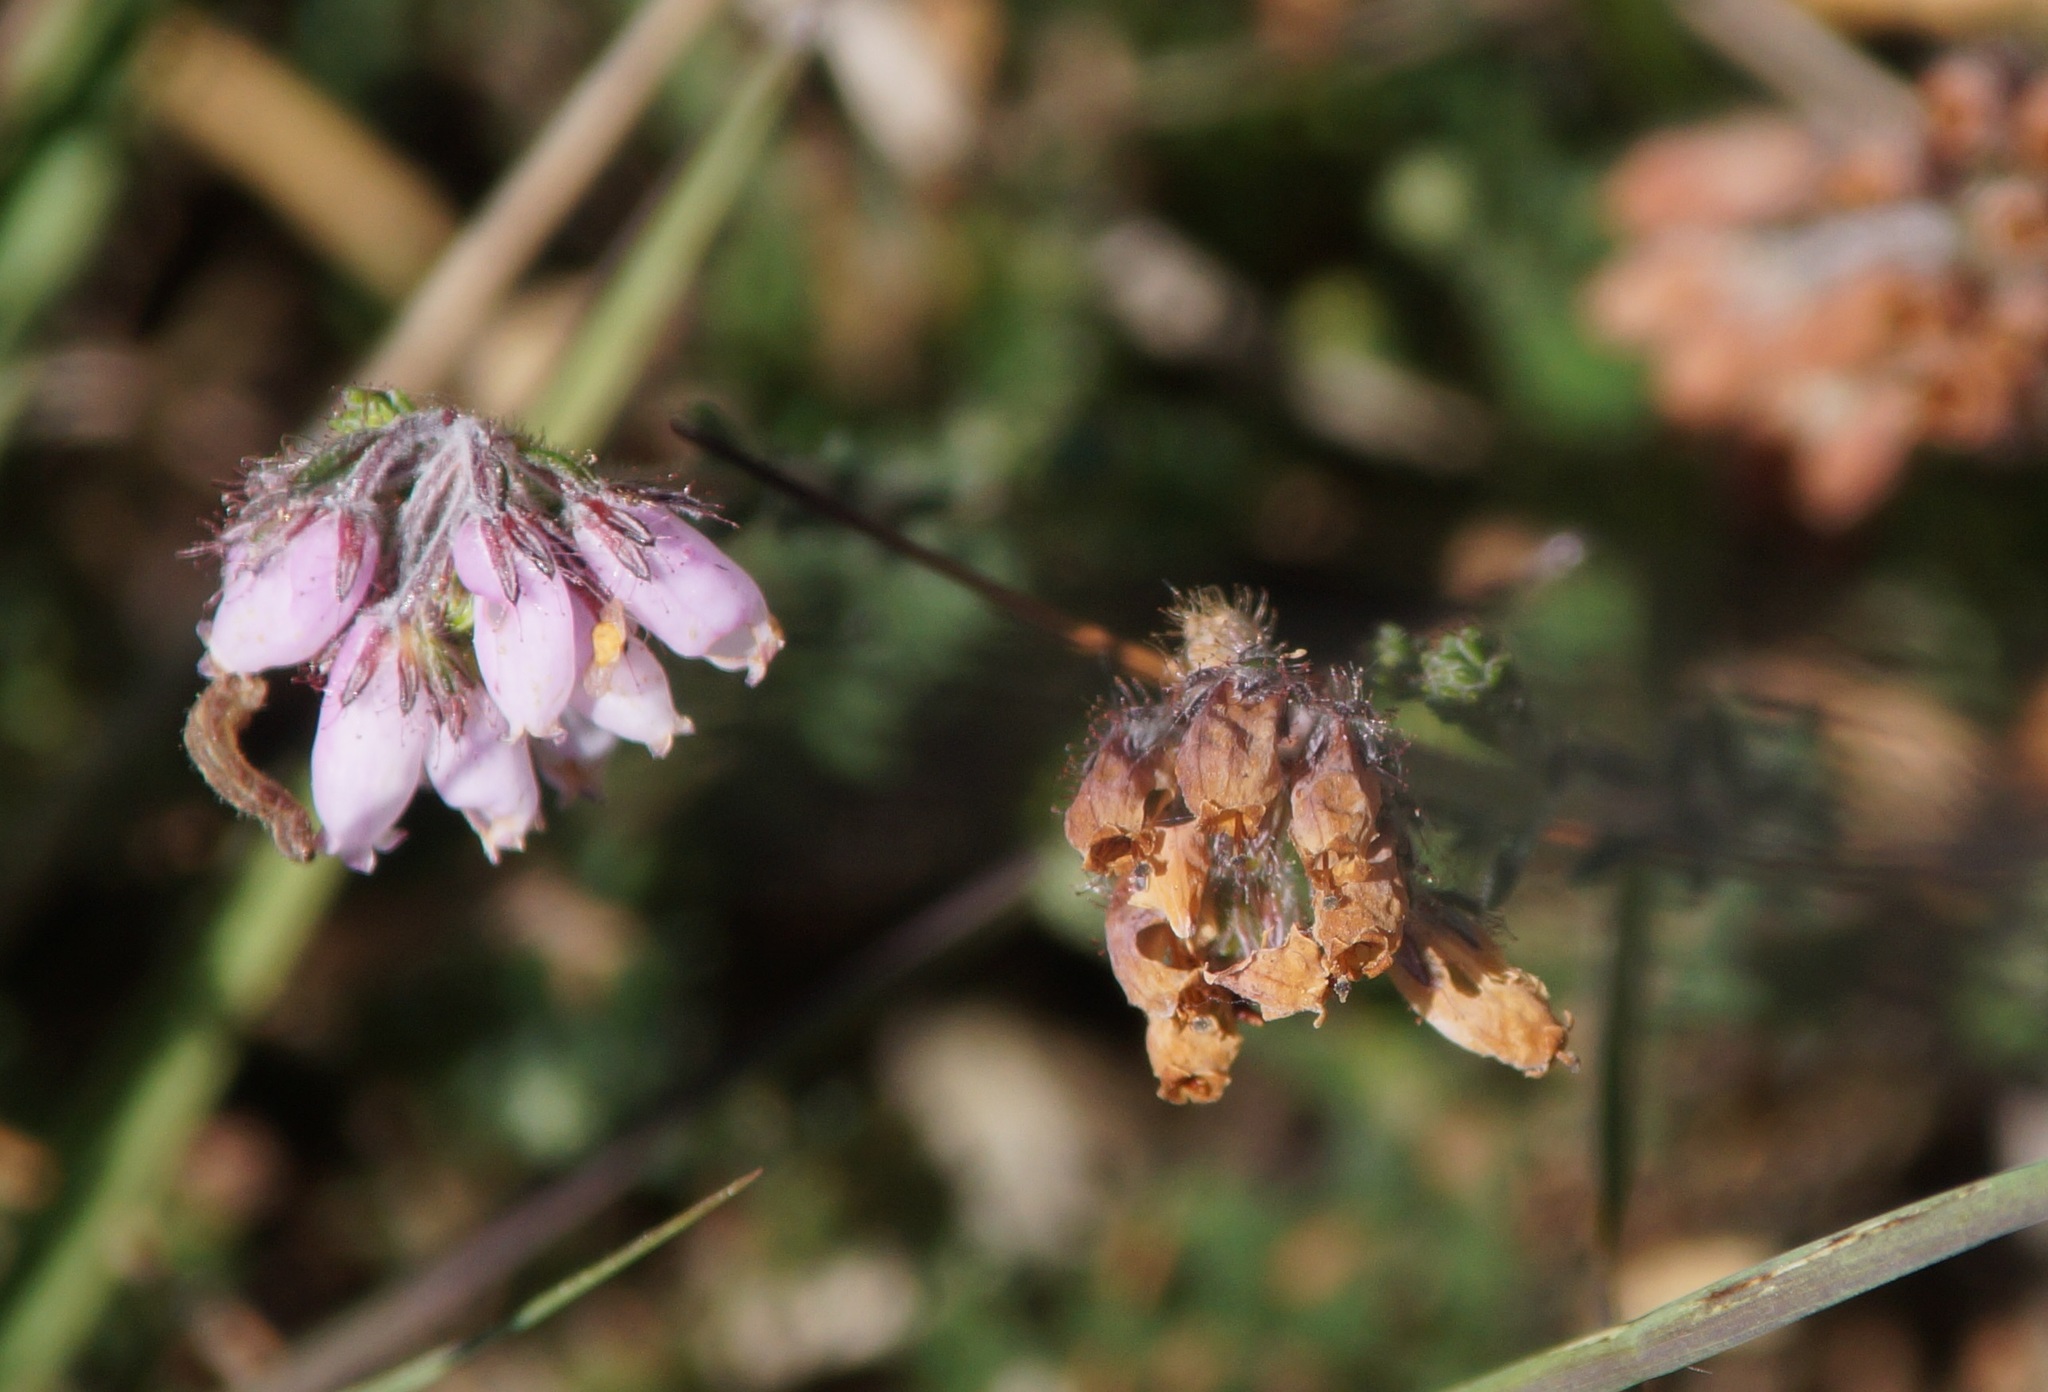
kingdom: Plantae
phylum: Tracheophyta
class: Magnoliopsida
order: Ericales
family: Ericaceae
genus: Erica
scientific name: Erica tetralix
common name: Cross-leaved heath
